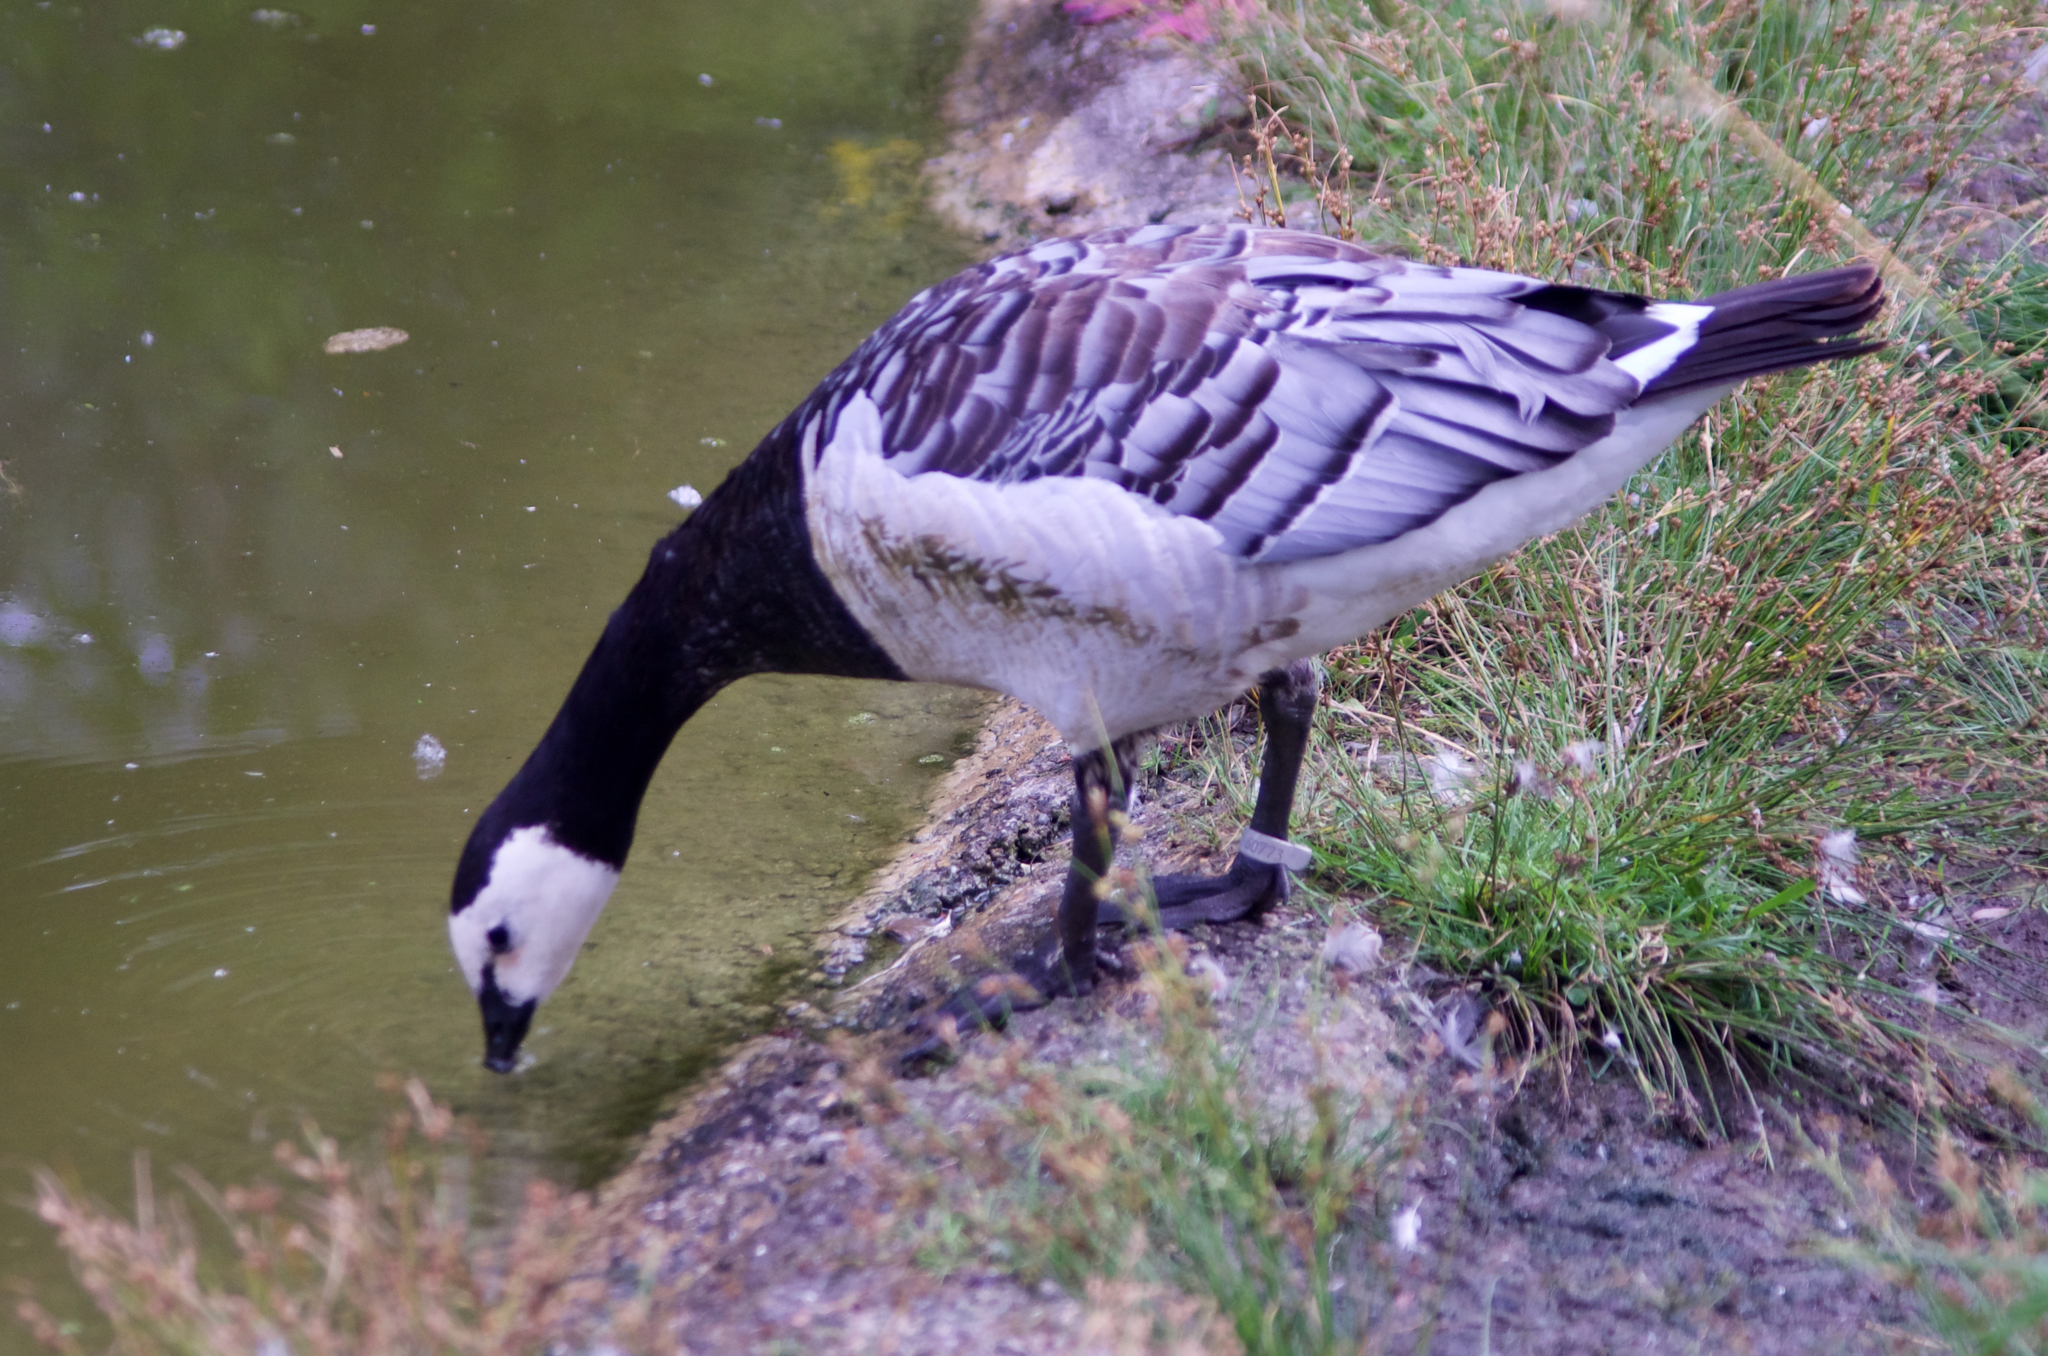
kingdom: Animalia
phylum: Chordata
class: Aves
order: Anseriformes
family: Anatidae
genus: Branta
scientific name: Branta leucopsis
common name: Barnacle goose
